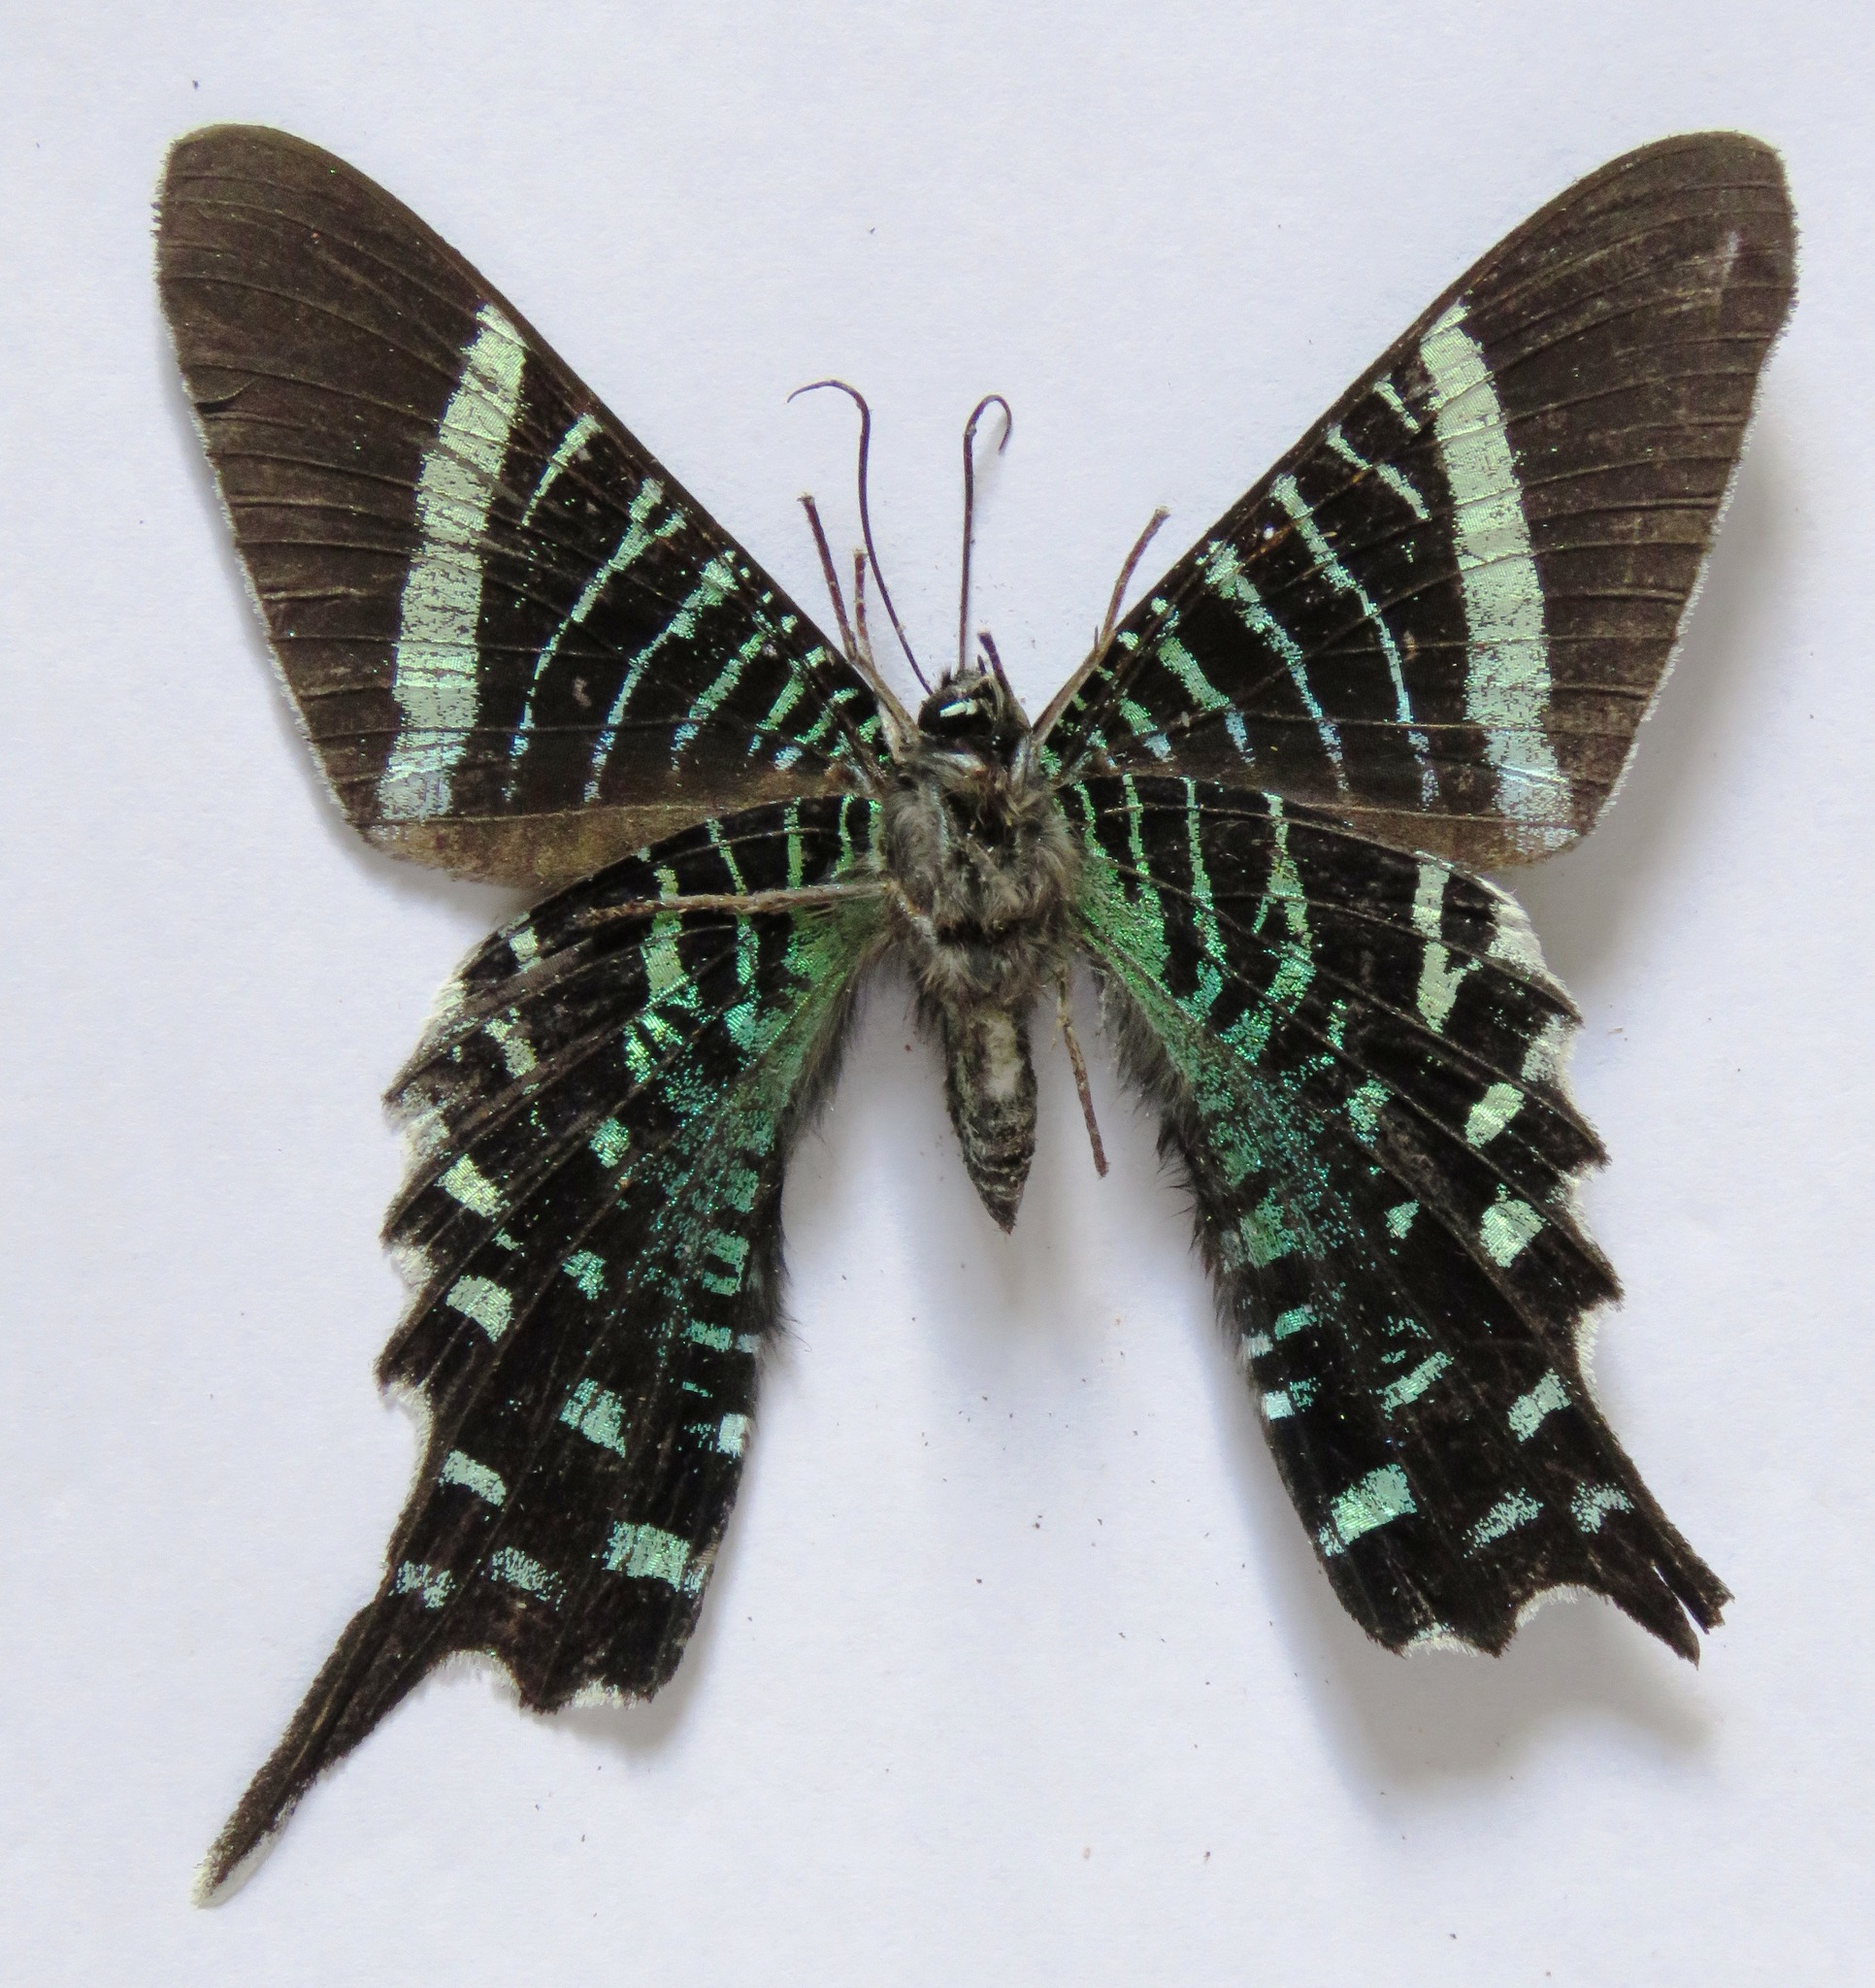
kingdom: Animalia
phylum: Arthropoda
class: Insecta
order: Lepidoptera
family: Uraniidae
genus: Urania
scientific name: Urania fulgens
